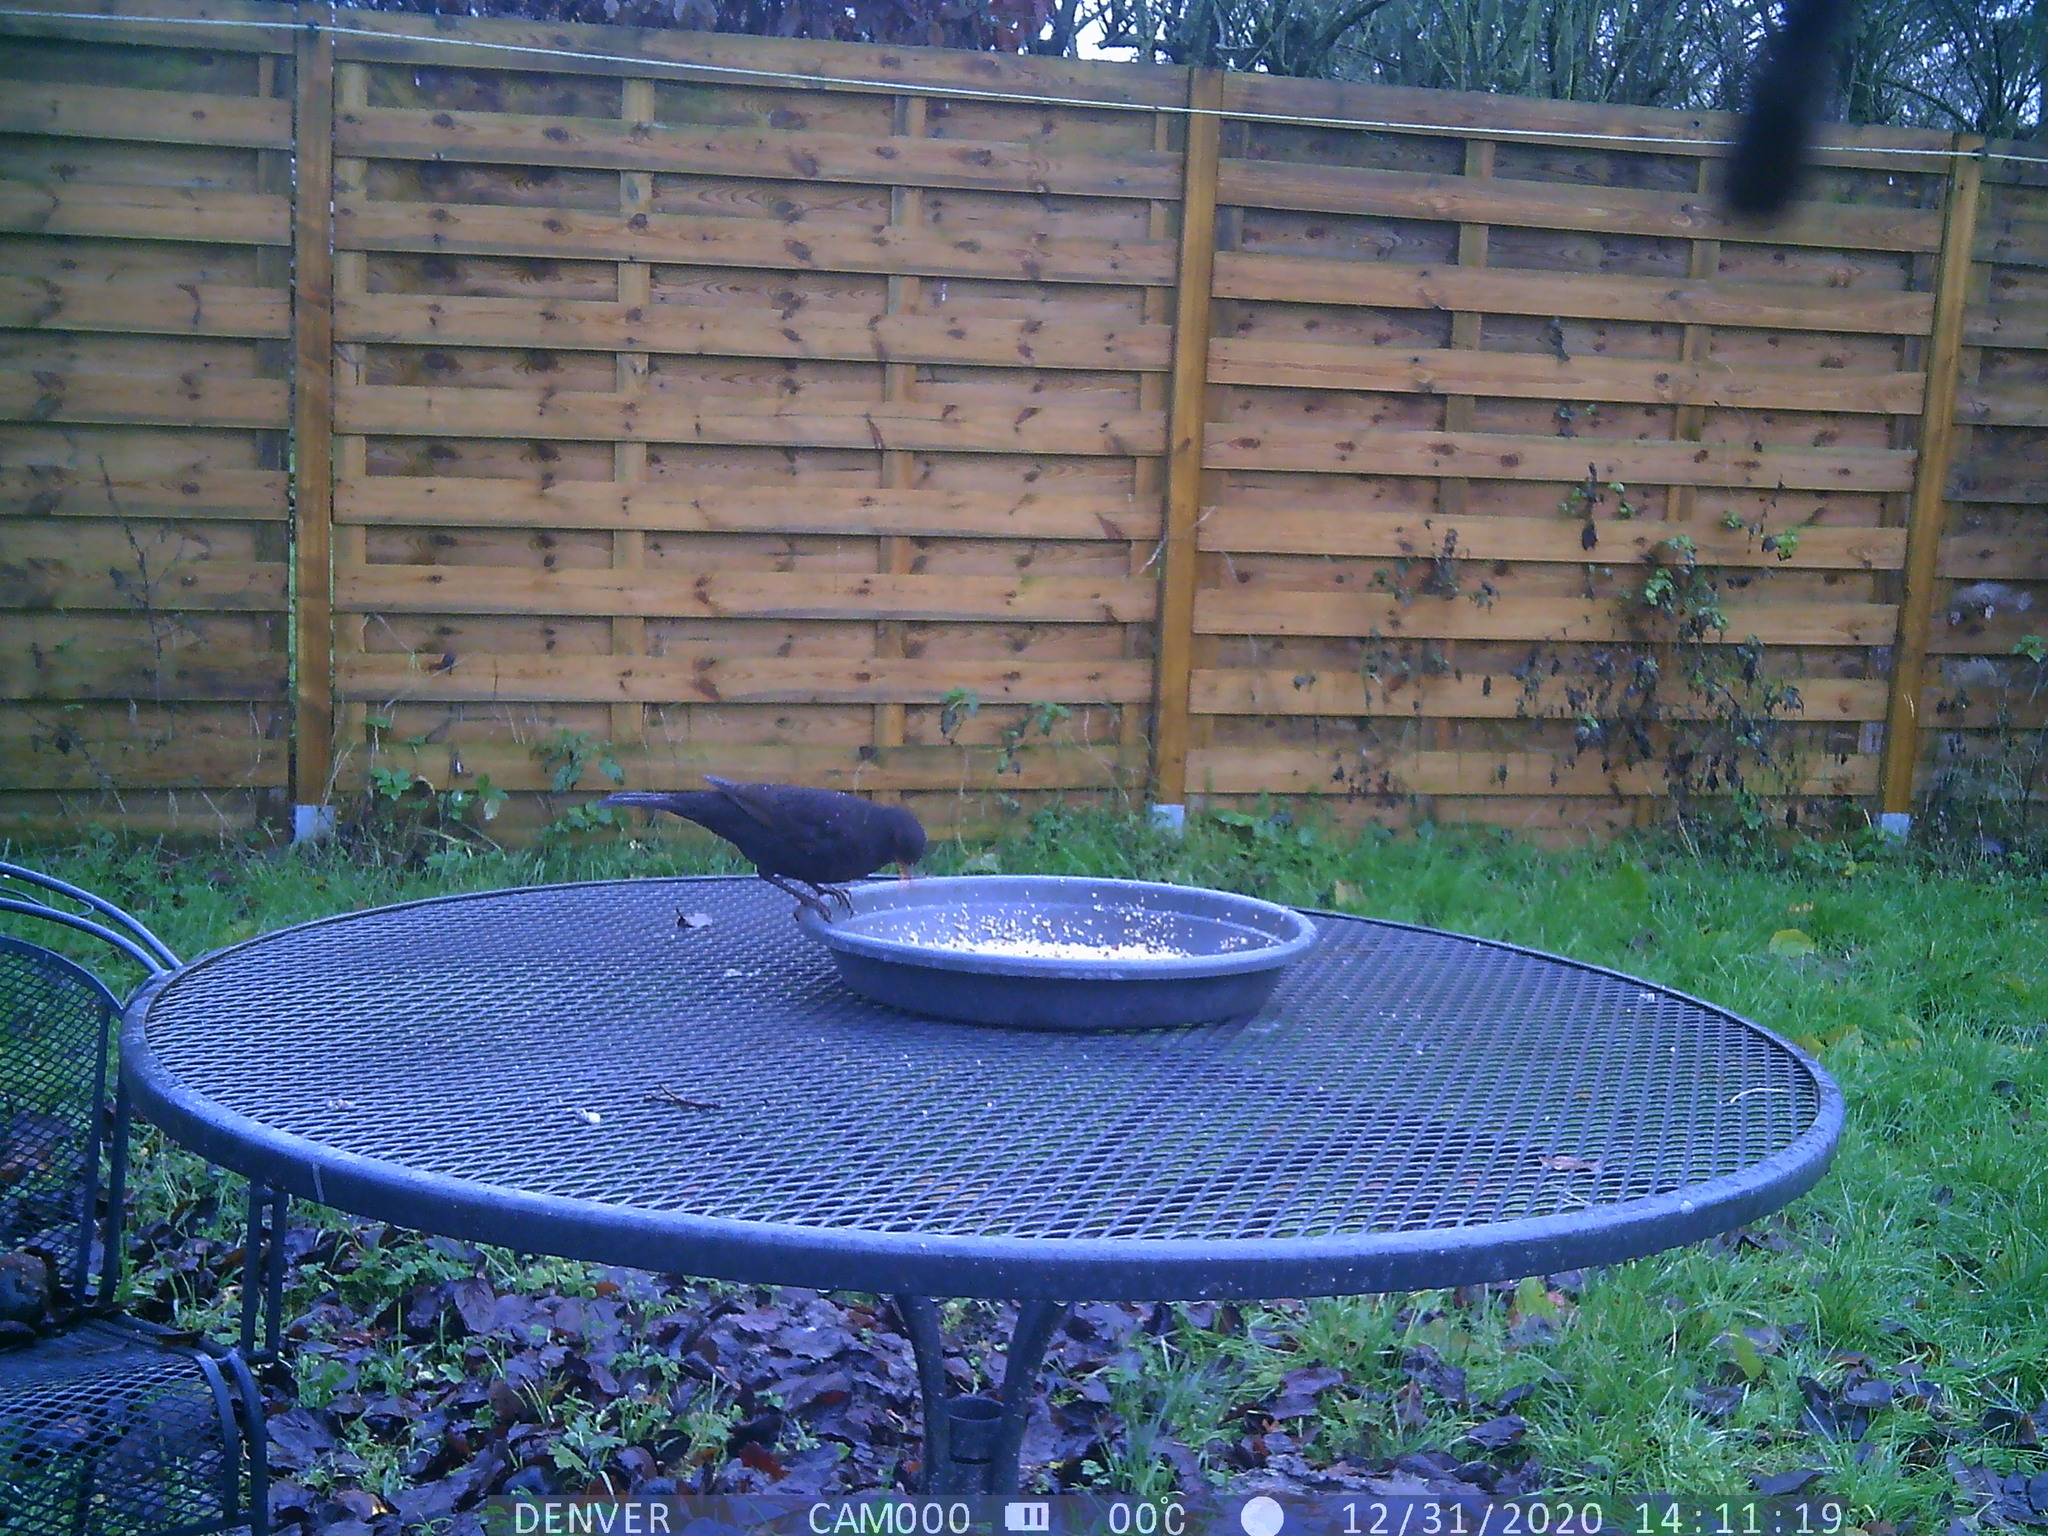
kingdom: Animalia
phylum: Chordata
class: Aves
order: Passeriformes
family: Turdidae
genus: Turdus
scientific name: Turdus merula
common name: Common blackbird
